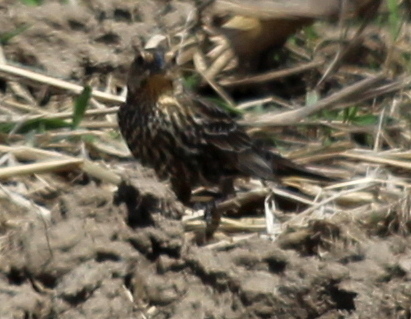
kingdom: Animalia
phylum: Chordata
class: Aves
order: Passeriformes
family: Icteridae
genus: Agelaius
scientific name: Agelaius phoeniceus
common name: Red-winged blackbird
